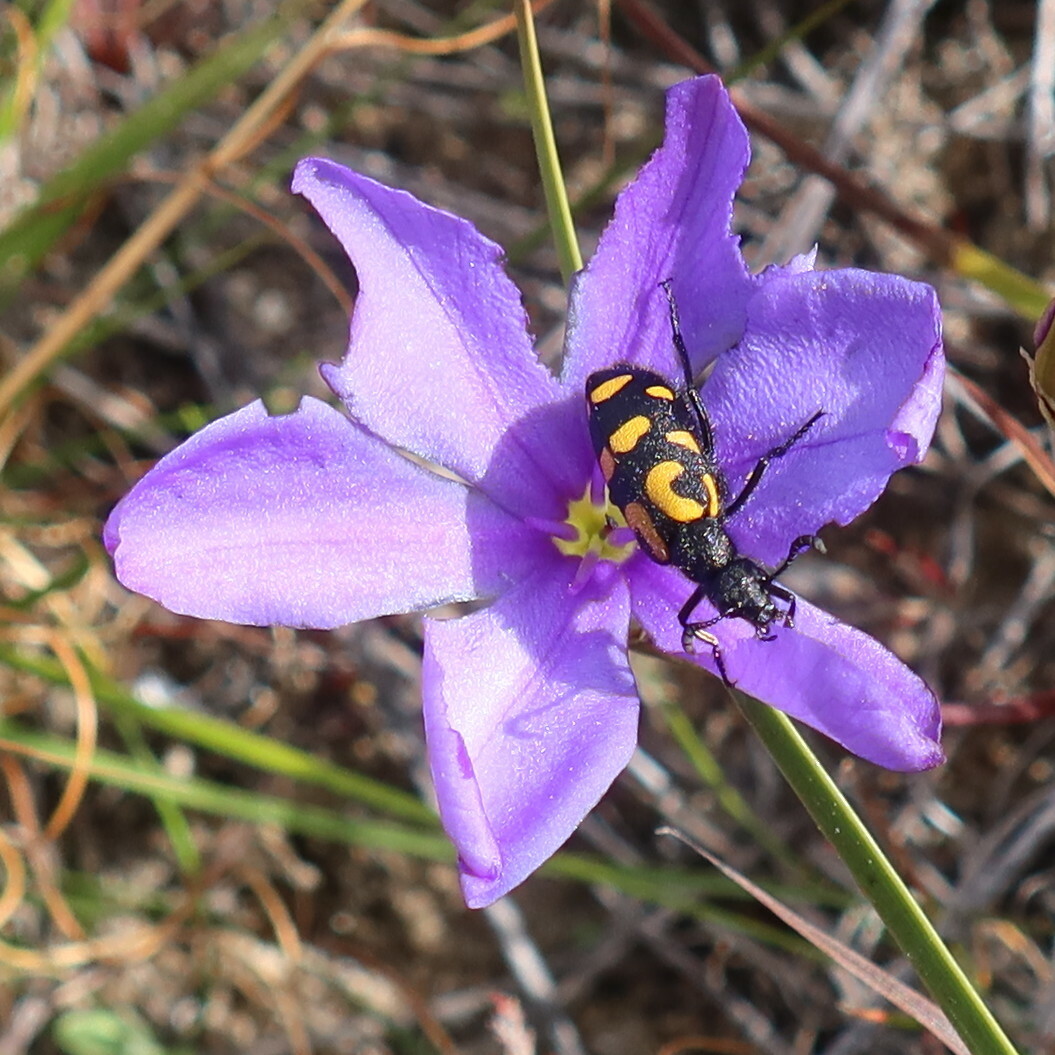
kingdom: Animalia
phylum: Arthropoda
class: Insecta
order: Coleoptera
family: Meloidae
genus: Ceroctis
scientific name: Ceroctis capensis
